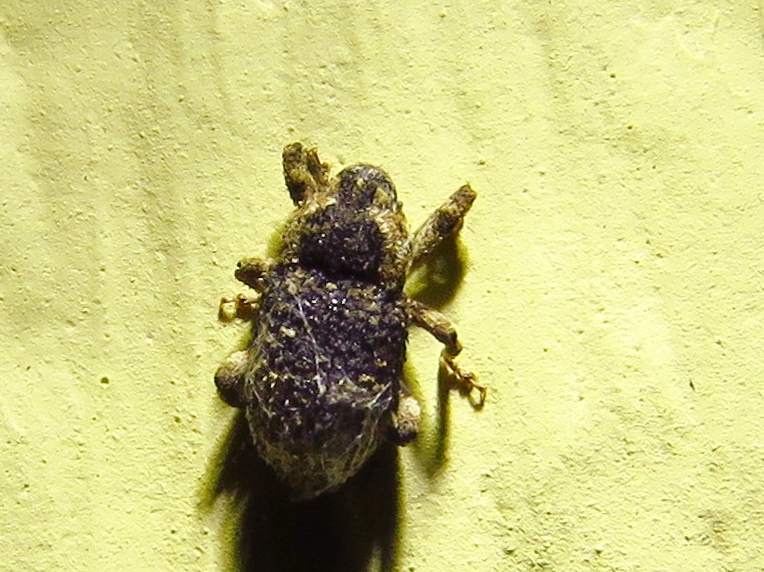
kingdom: Animalia
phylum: Arthropoda
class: Insecta
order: Coleoptera
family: Curculionidae
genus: Cophes
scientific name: Cophes fallax
